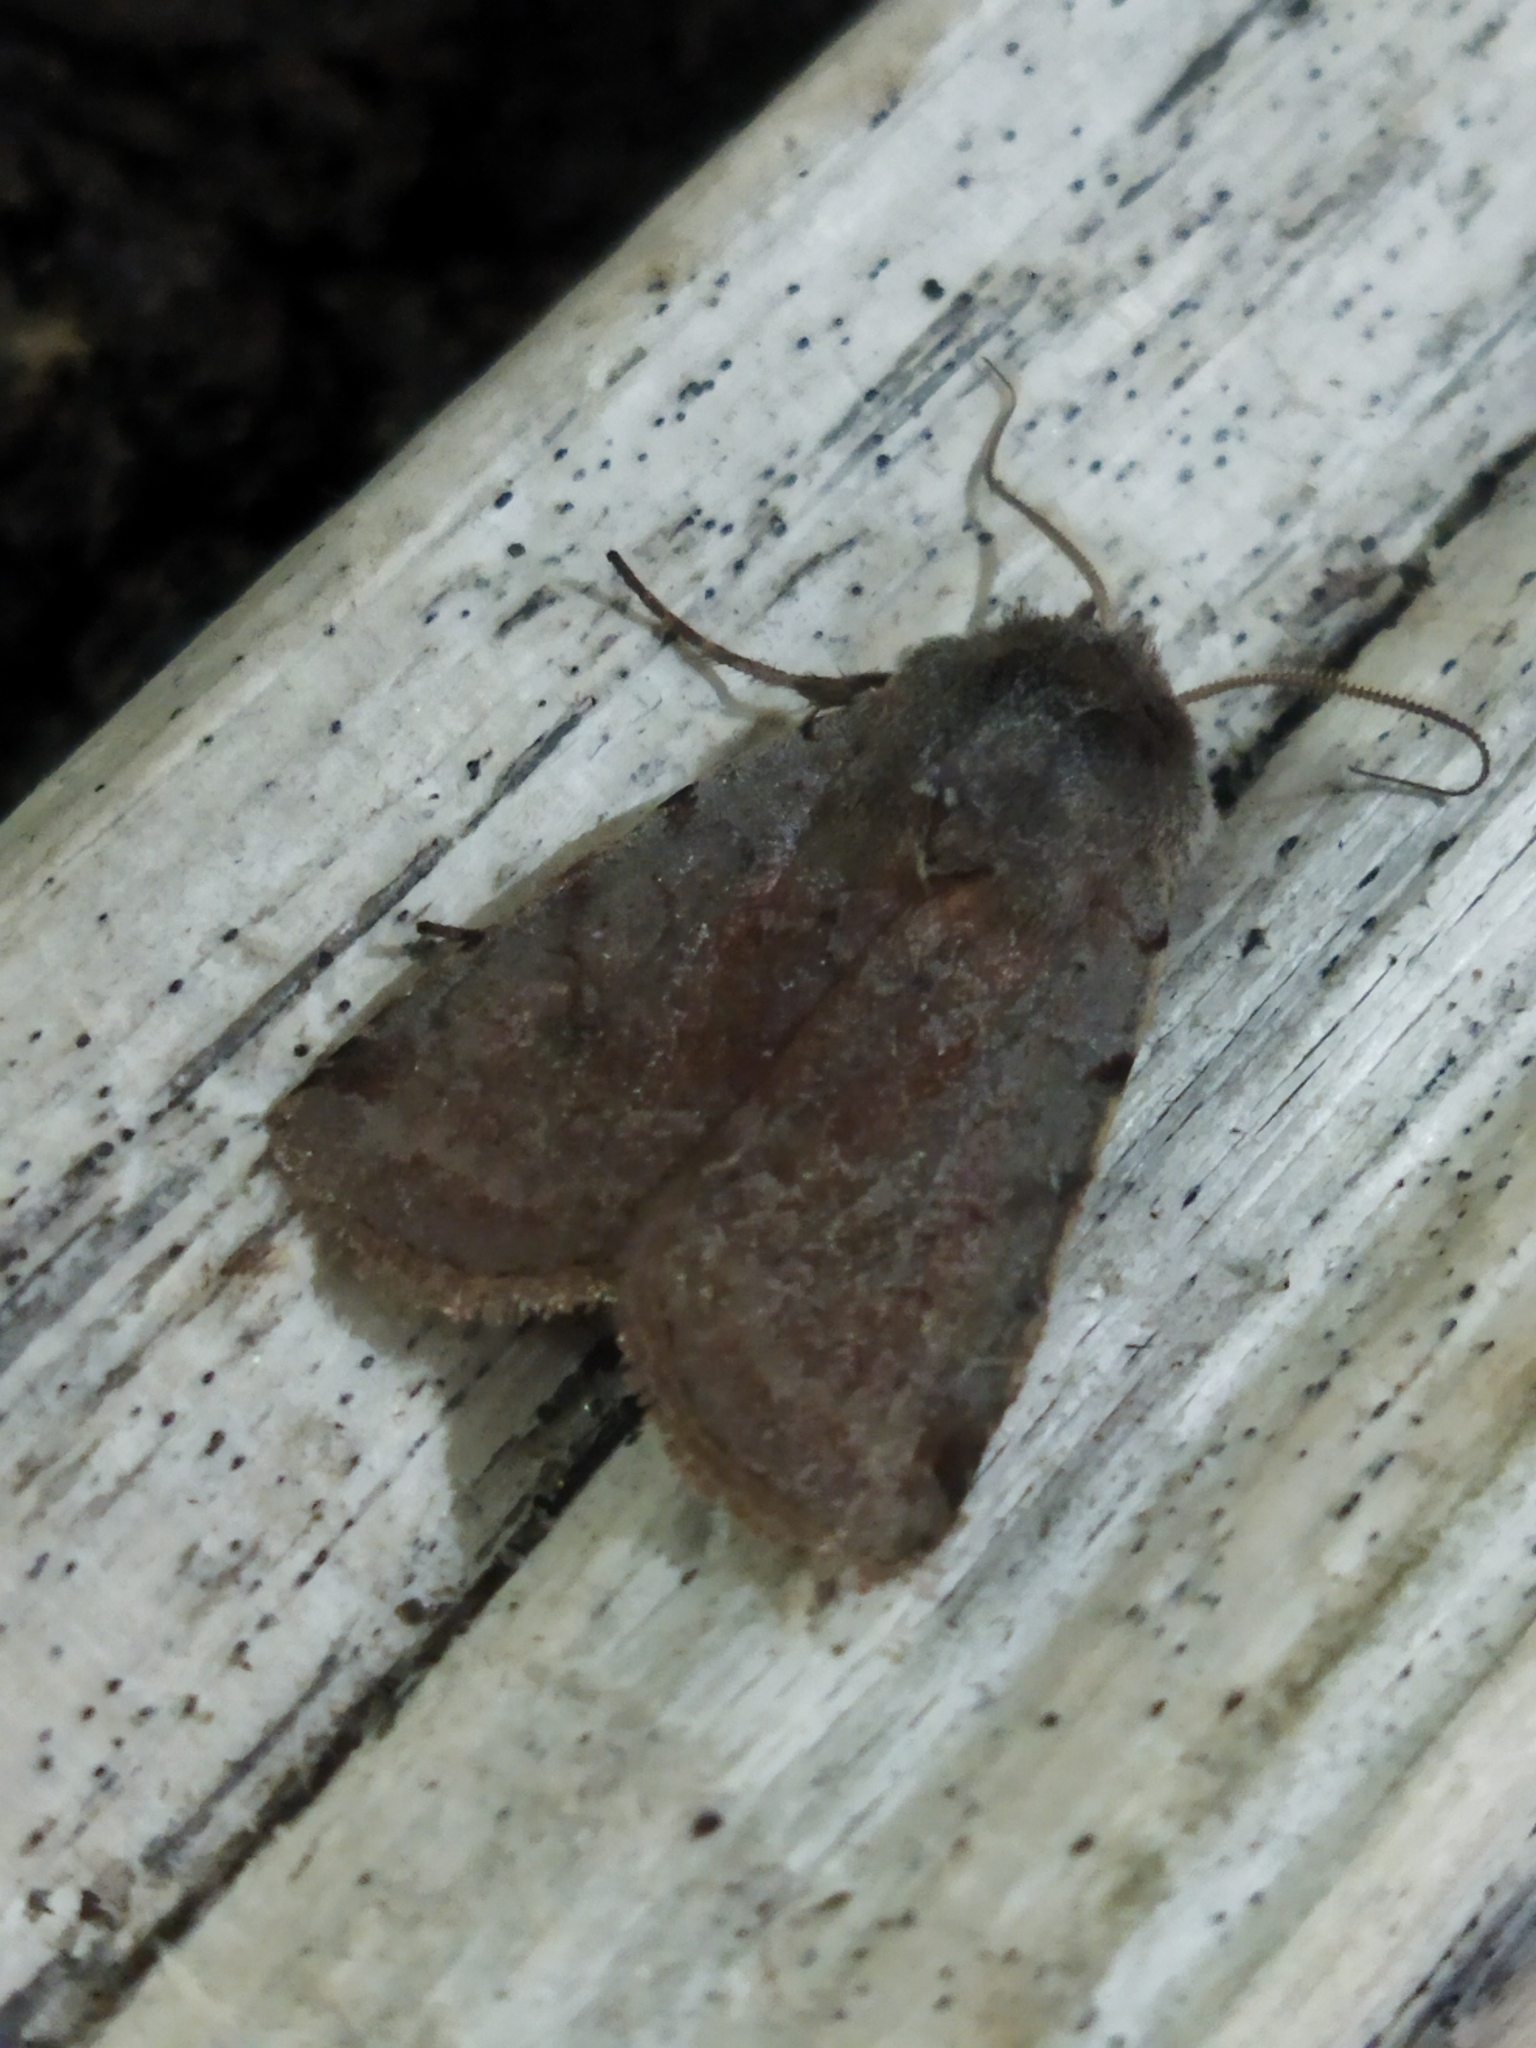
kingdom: Animalia
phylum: Arthropoda
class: Insecta
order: Lepidoptera
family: Noctuidae
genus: Cerastis
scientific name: Cerastis rubricosa
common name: Red chestnut
